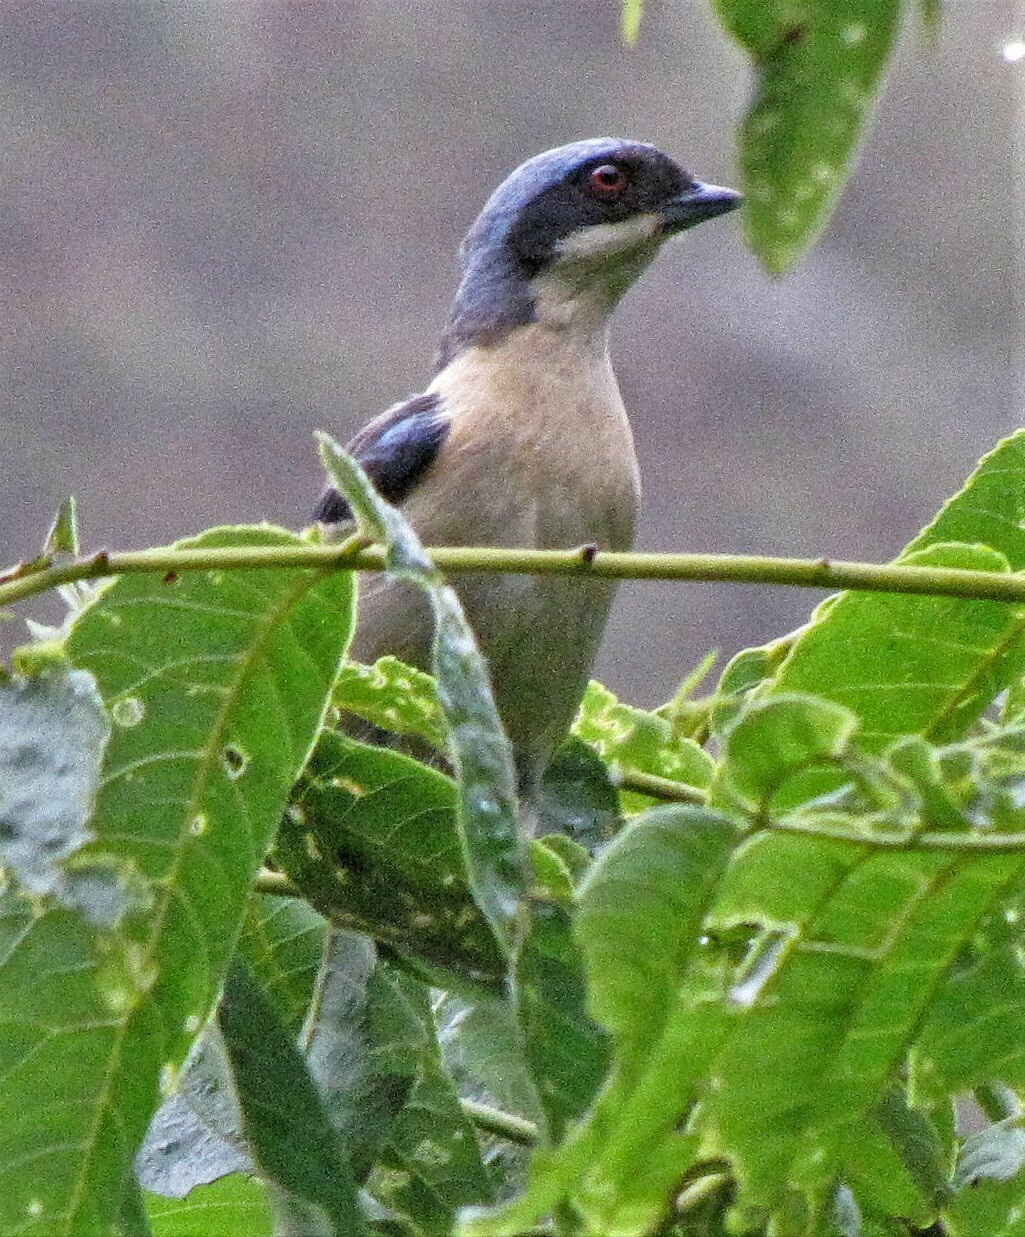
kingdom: Animalia
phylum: Chordata
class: Aves
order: Passeriformes
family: Thraupidae
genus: Pipraeidea
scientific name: Pipraeidea melanonota
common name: Fawn-breasted tanager
